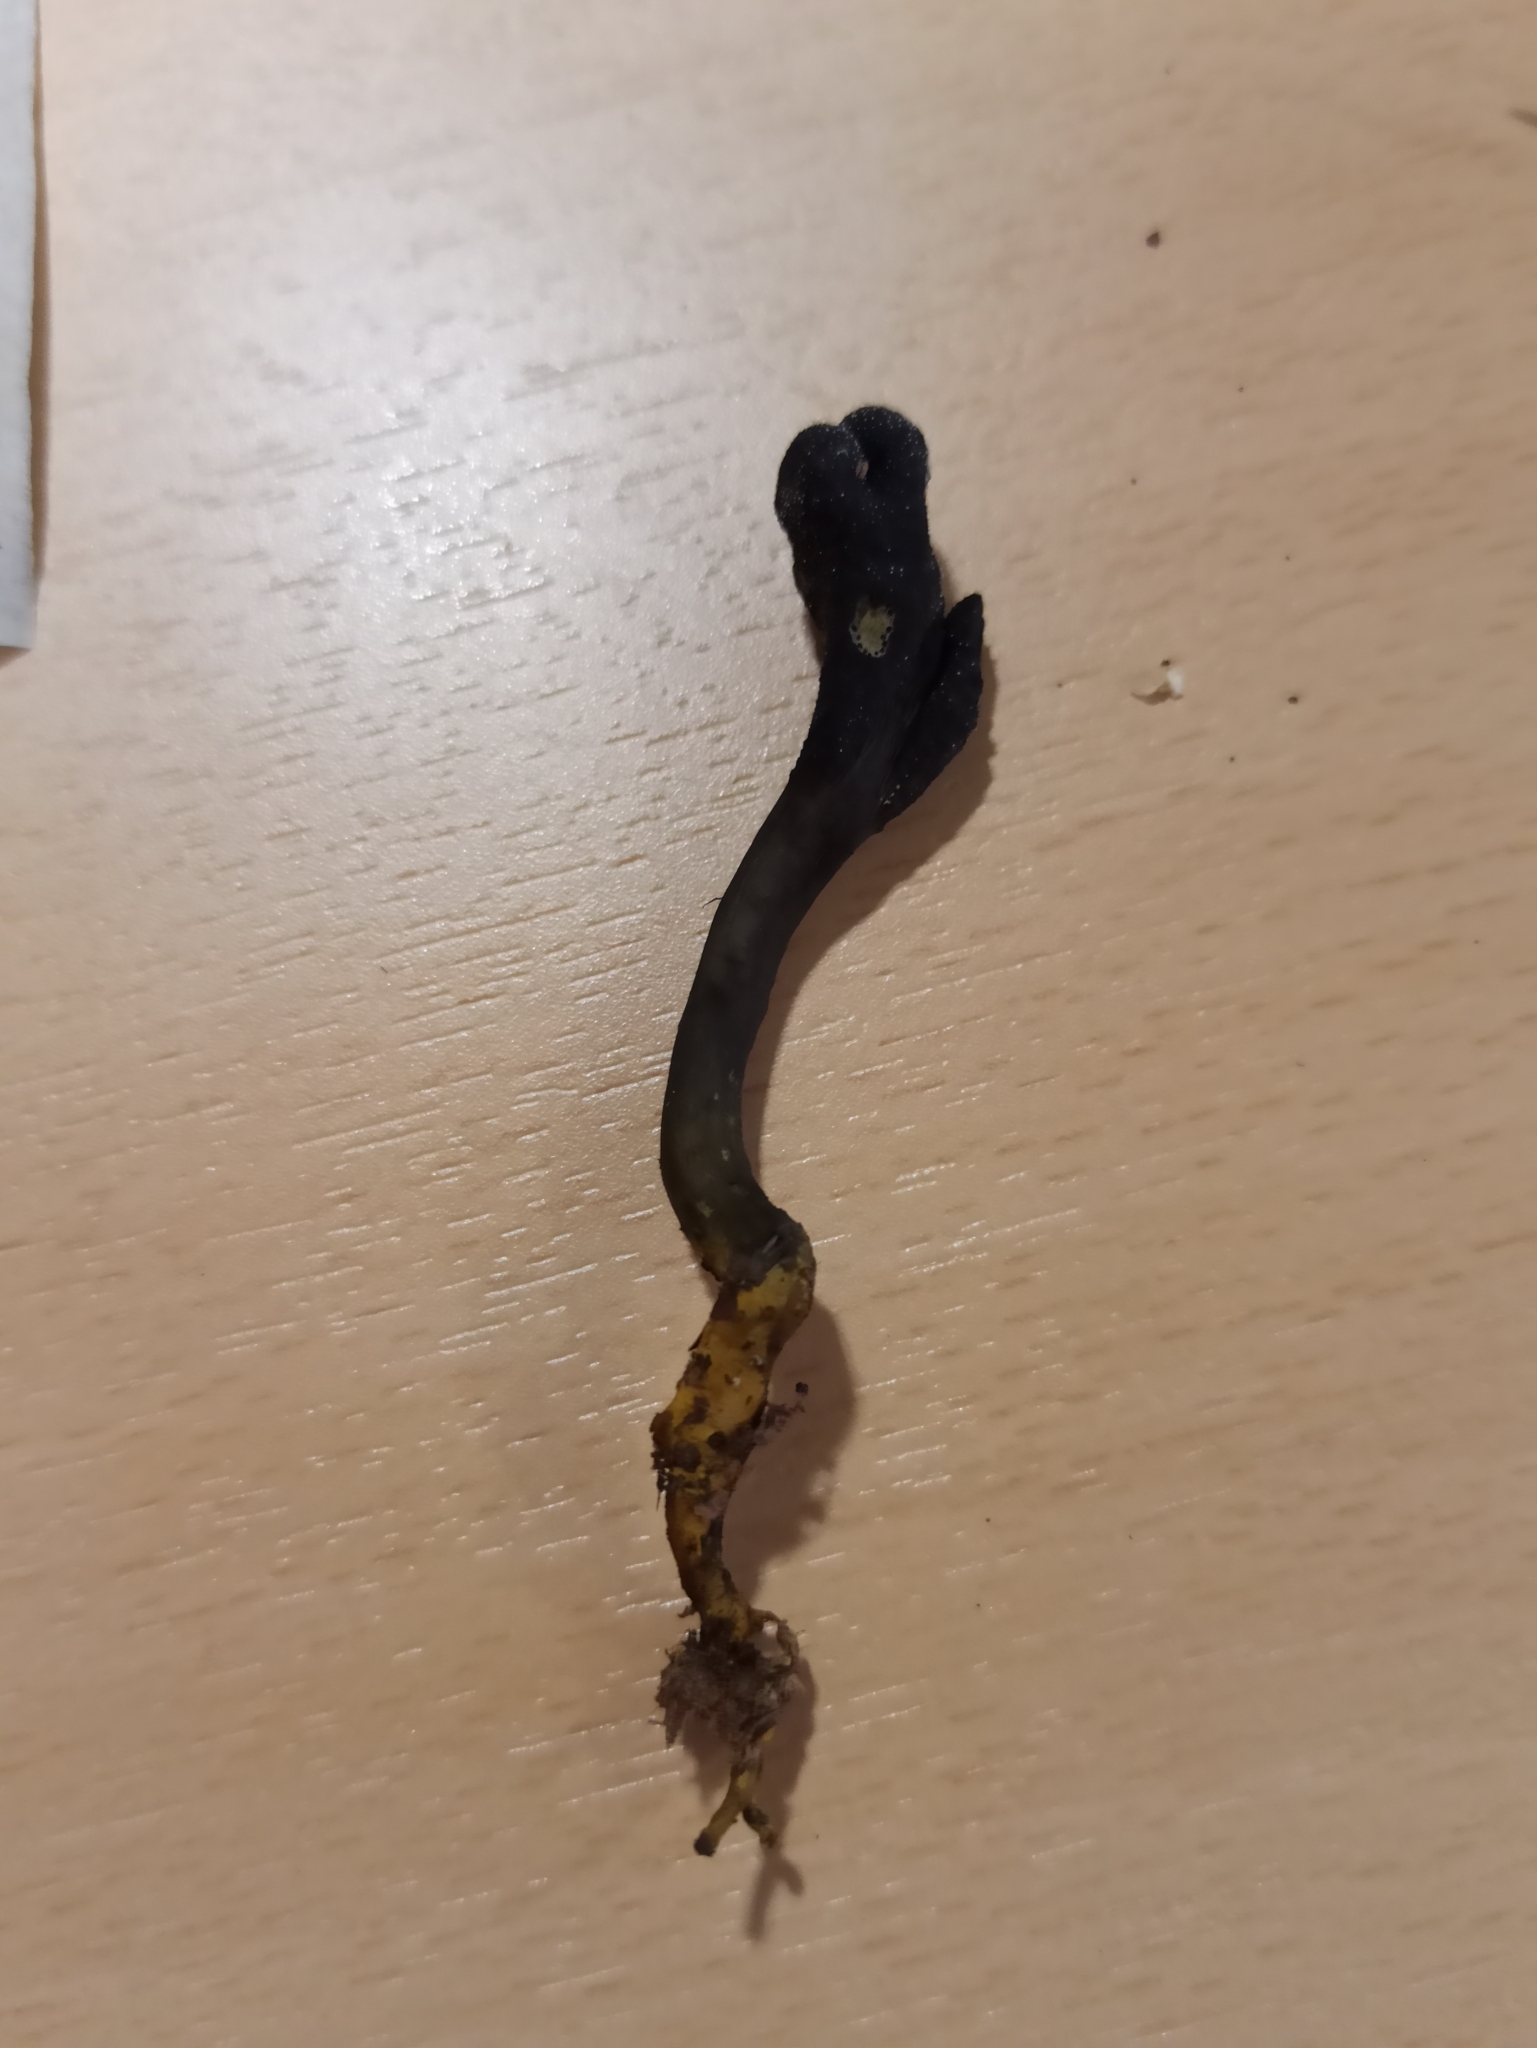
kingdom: Fungi
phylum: Ascomycota
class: Sordariomycetes
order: Hypocreales
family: Ophiocordycipitaceae
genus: Tolypocladium
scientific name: Tolypocladium ophioglossoides
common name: Snaketongue truffleclub
